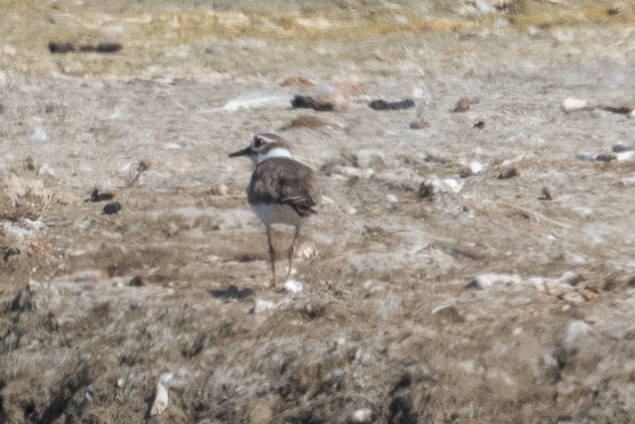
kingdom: Animalia
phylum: Chordata
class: Aves
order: Charadriiformes
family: Charadriidae
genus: Charadrius
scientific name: Charadrius vociferus
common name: Killdeer
